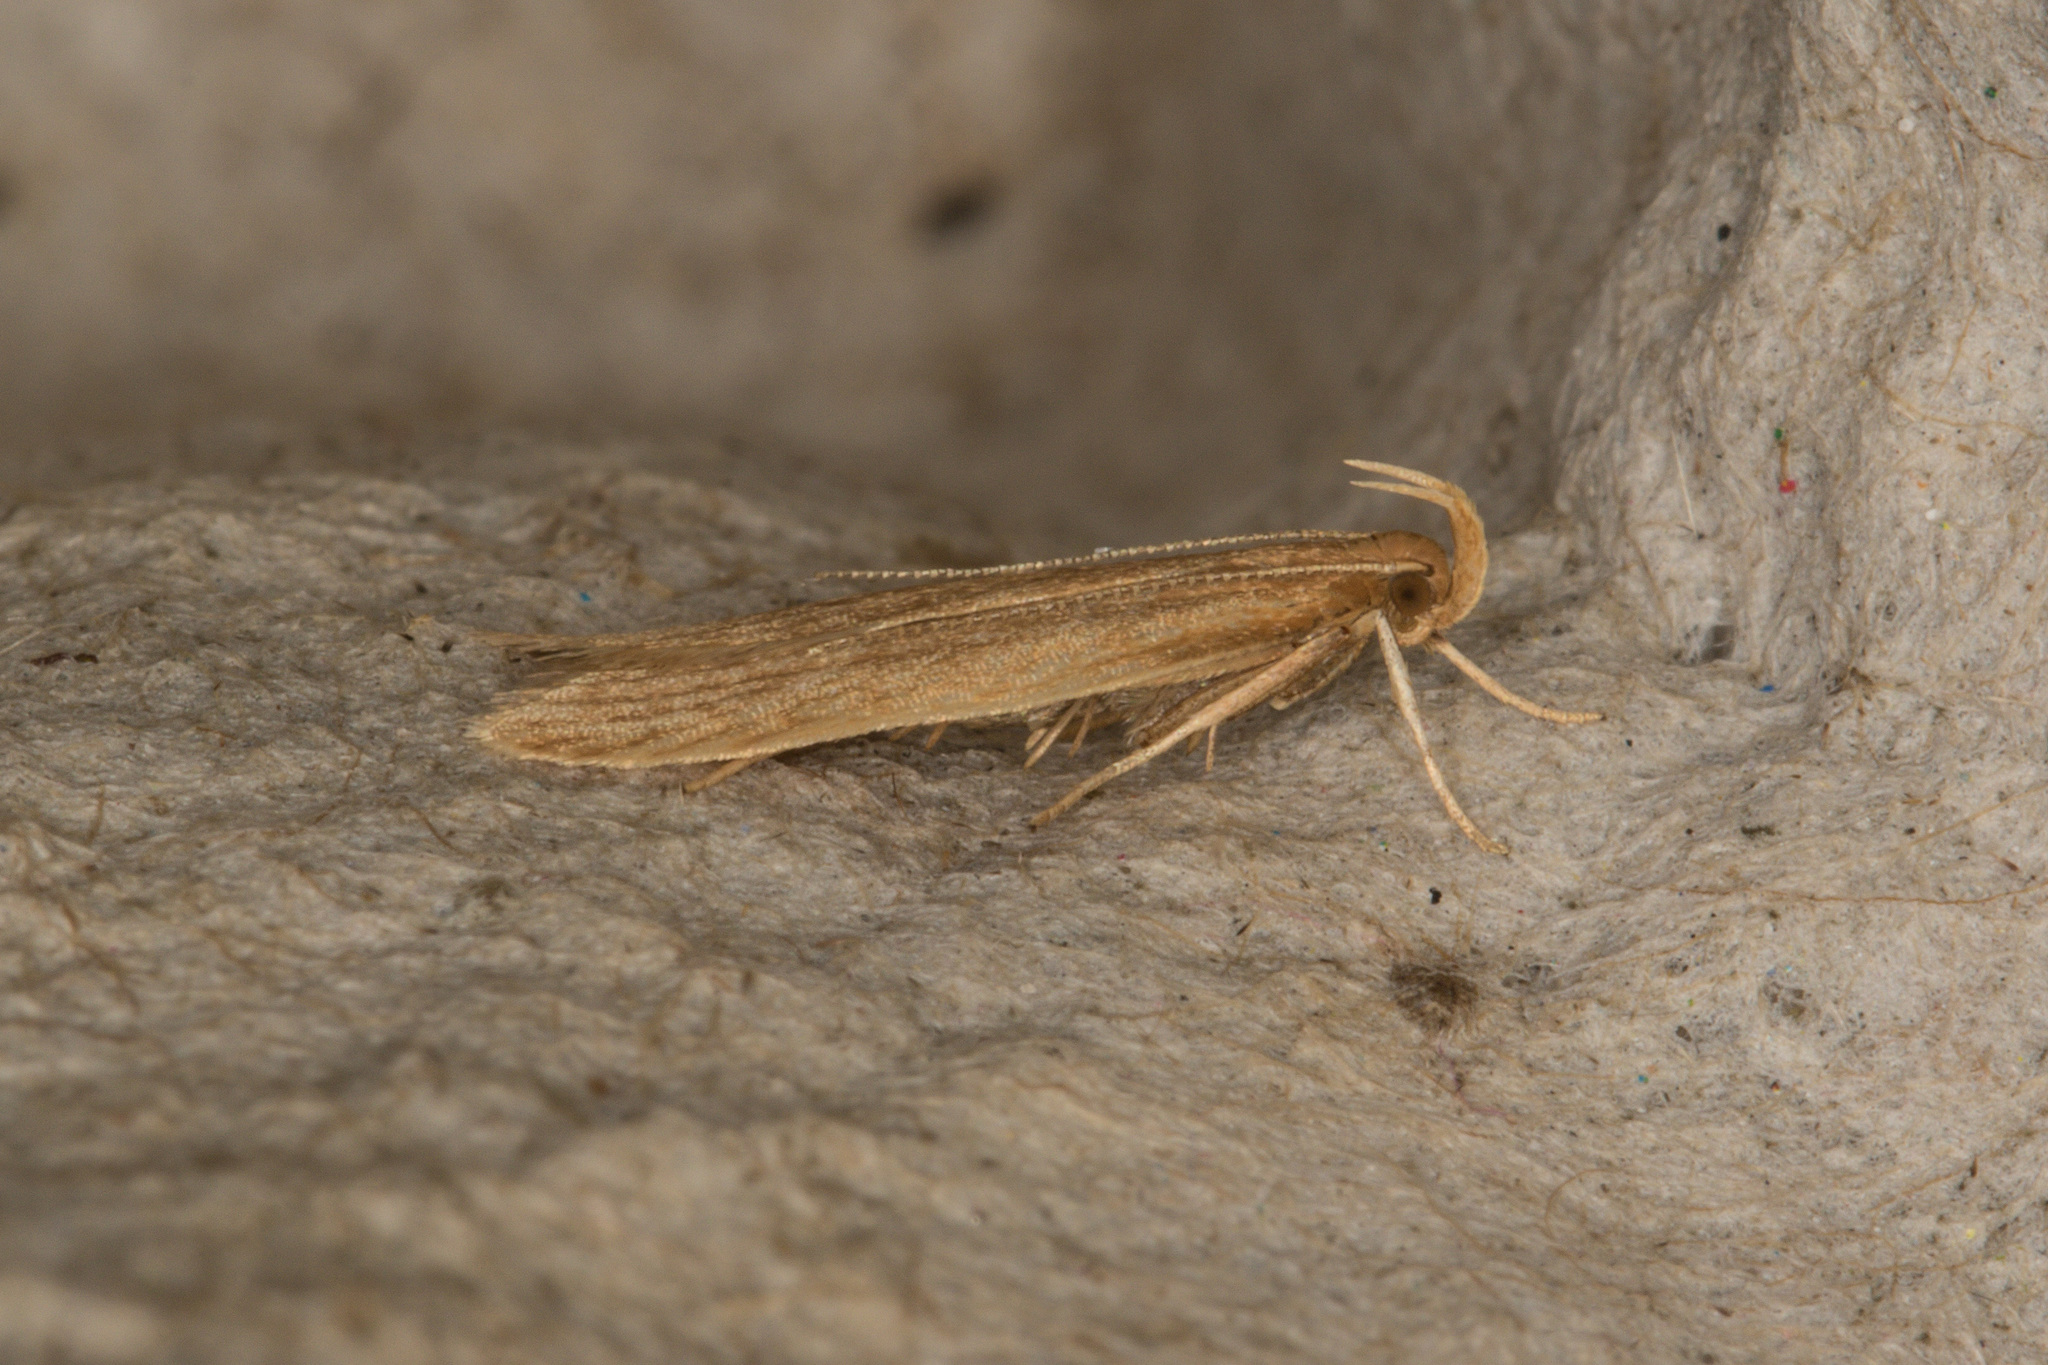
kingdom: Animalia
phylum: Arthropoda
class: Insecta
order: Lepidoptera
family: Gelechiidae
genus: Helcystogramma
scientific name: Helcystogramma rufescens
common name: Orange crest
